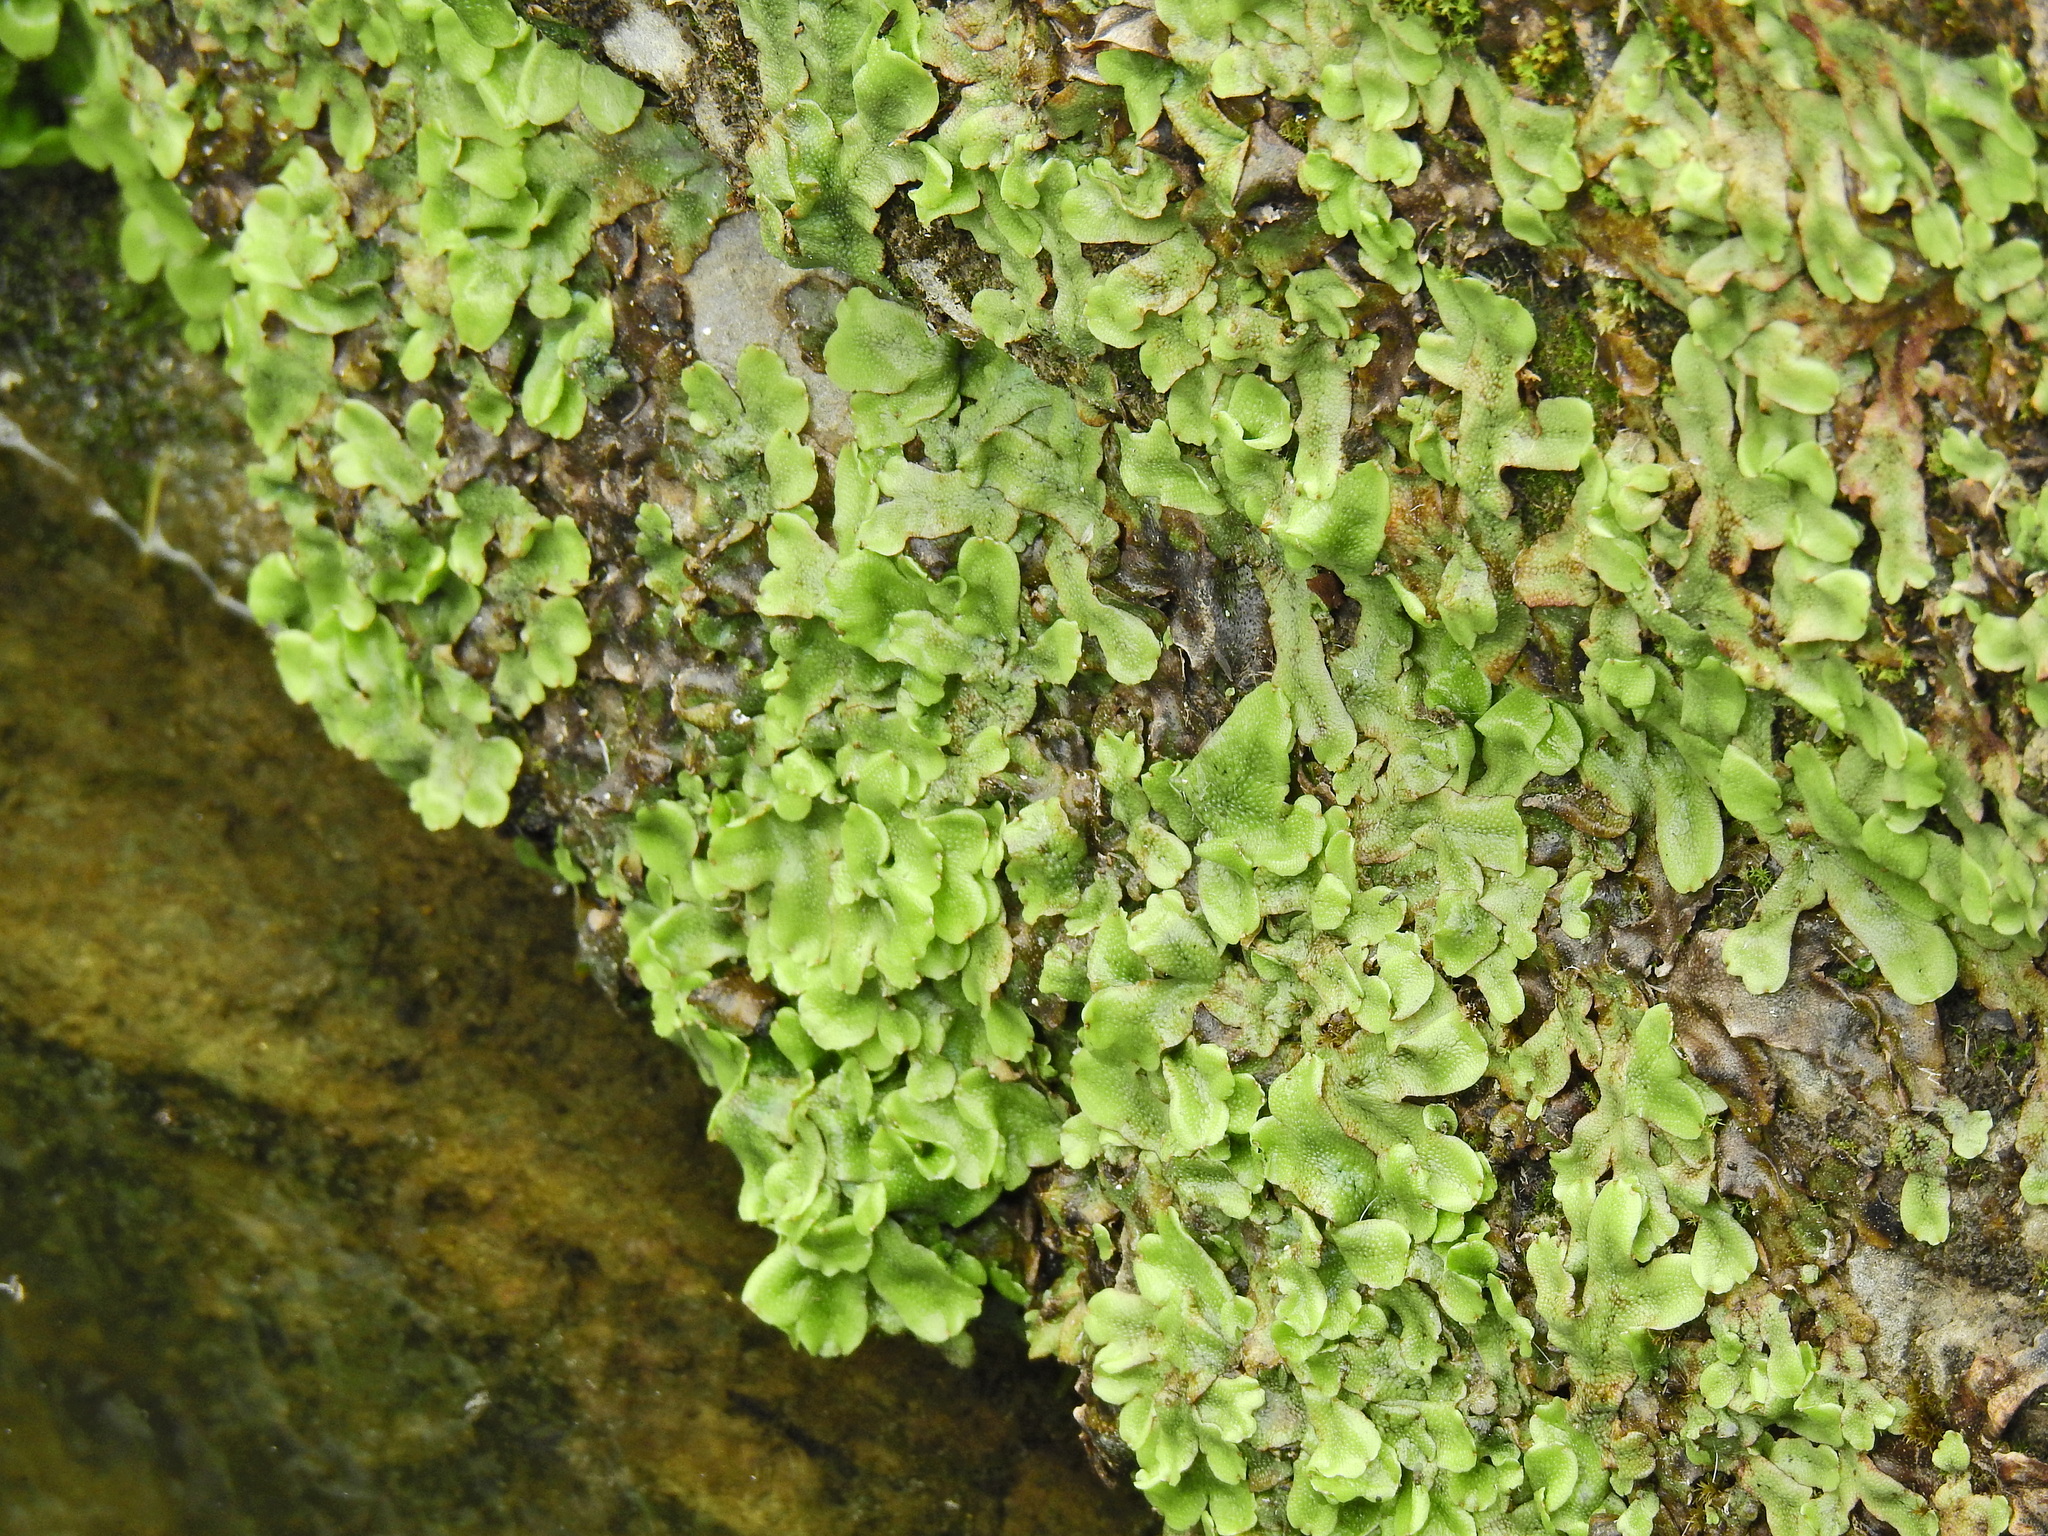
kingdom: Plantae
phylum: Marchantiophyta
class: Marchantiopsida
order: Marchantiales
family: Conocephalaceae
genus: Conocephalum
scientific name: Conocephalum conicum
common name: Great scented liverwort
